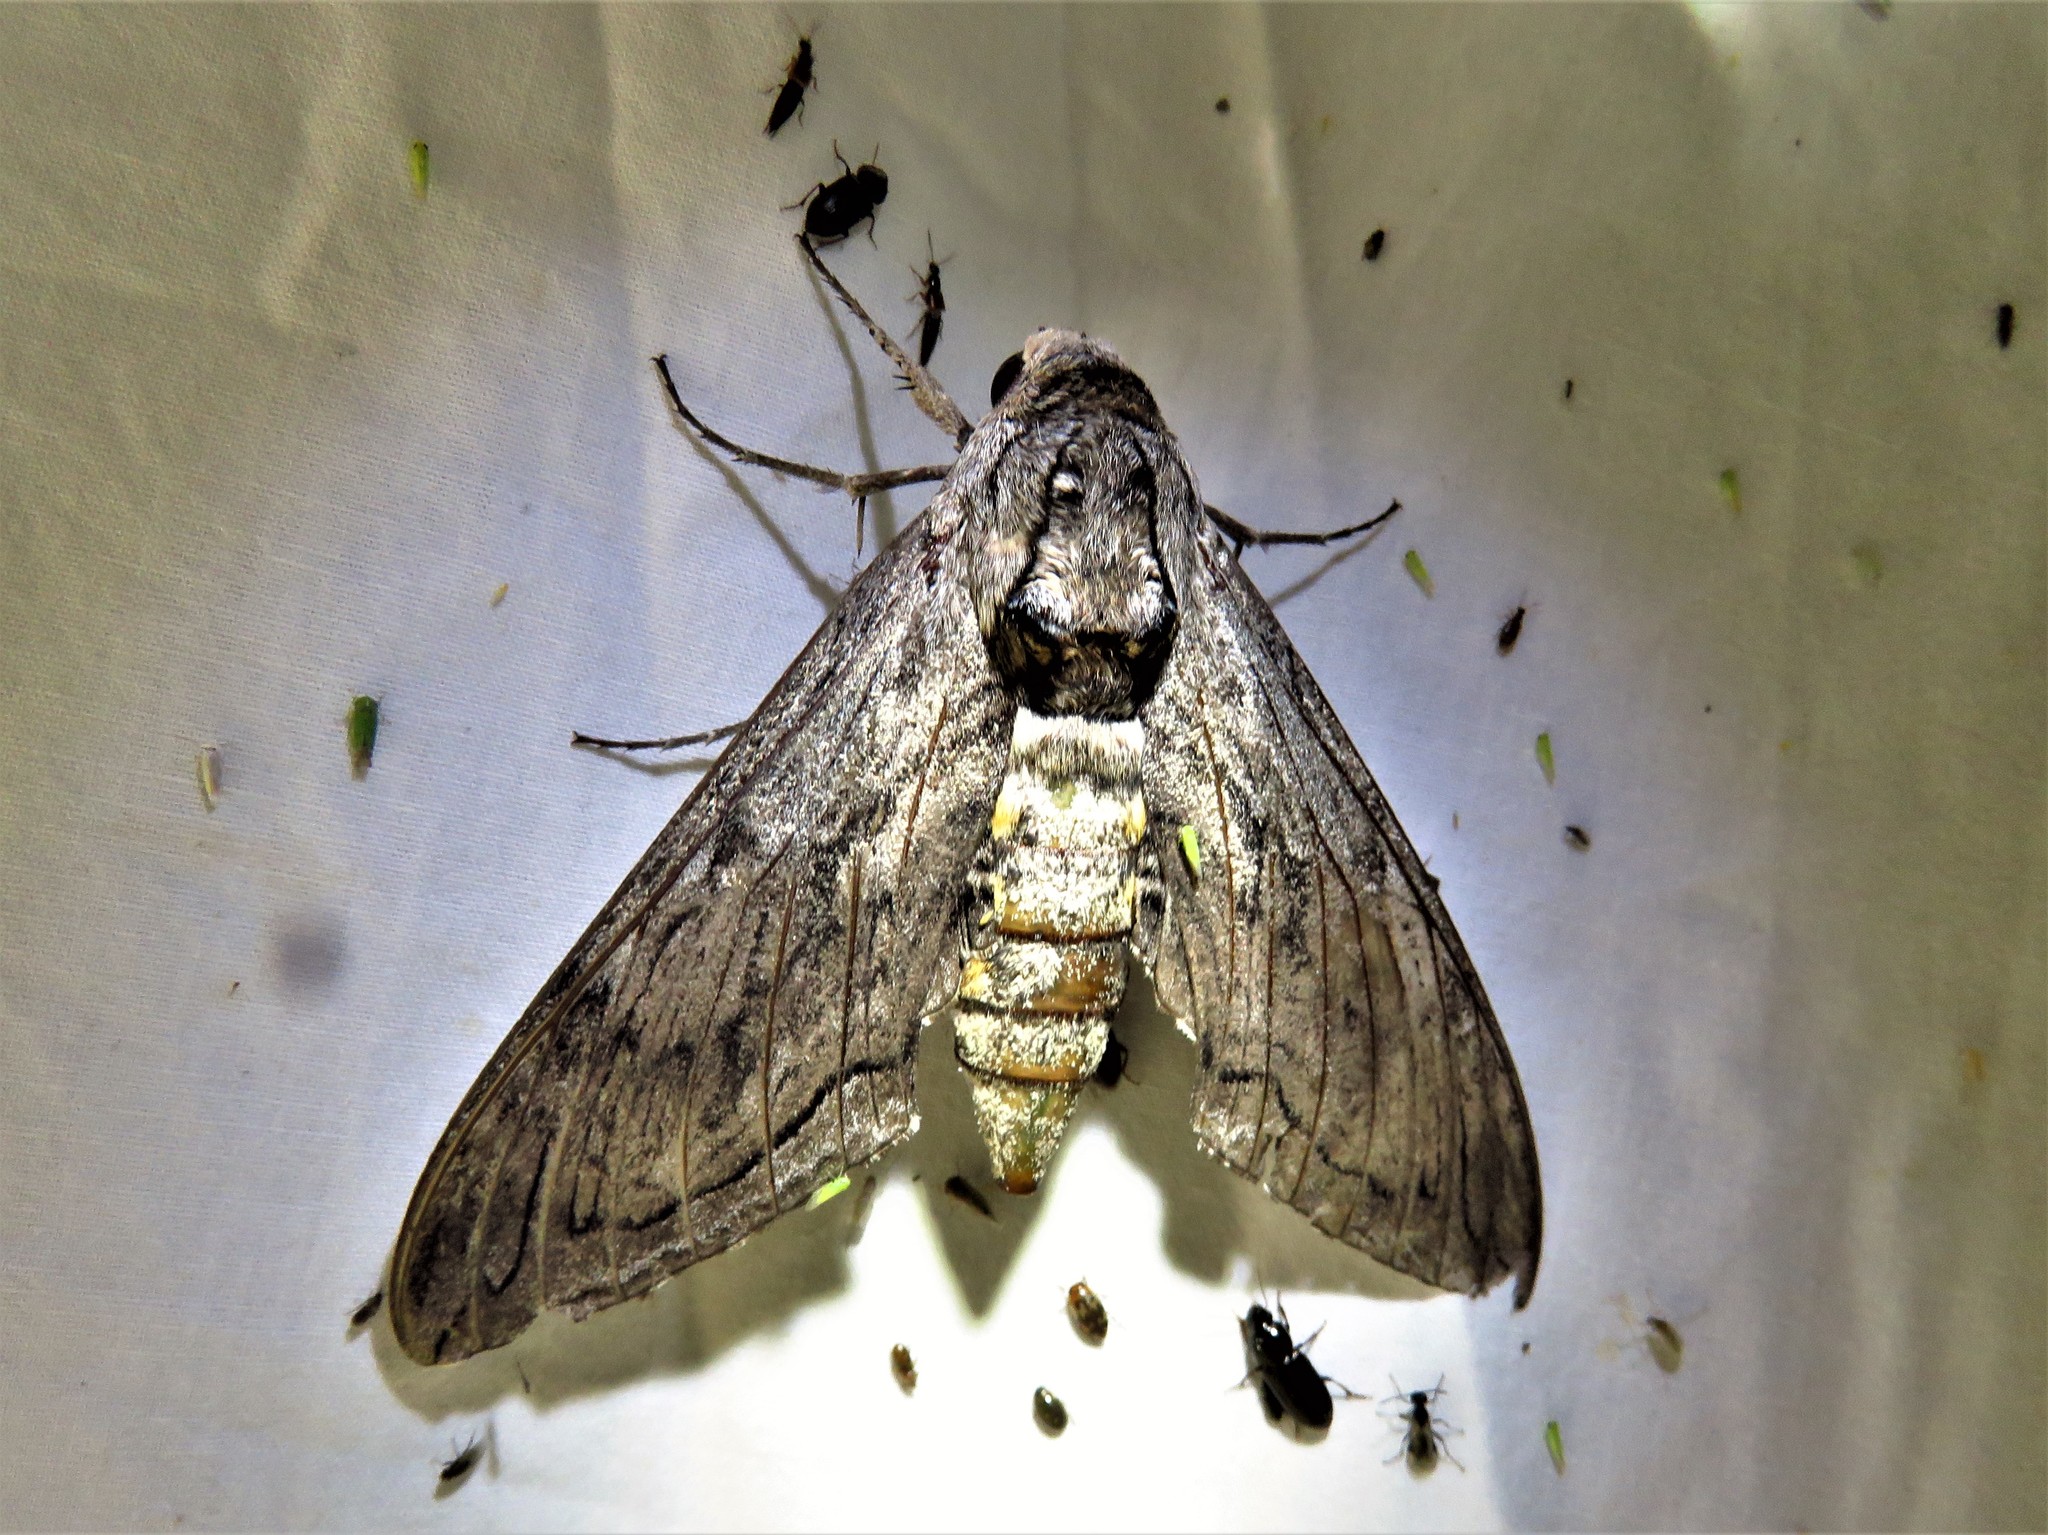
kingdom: Animalia
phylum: Arthropoda
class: Insecta
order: Lepidoptera
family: Sphingidae
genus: Manduca
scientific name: Manduca quinquemaculatus
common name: Five-spotted hawk-moth
